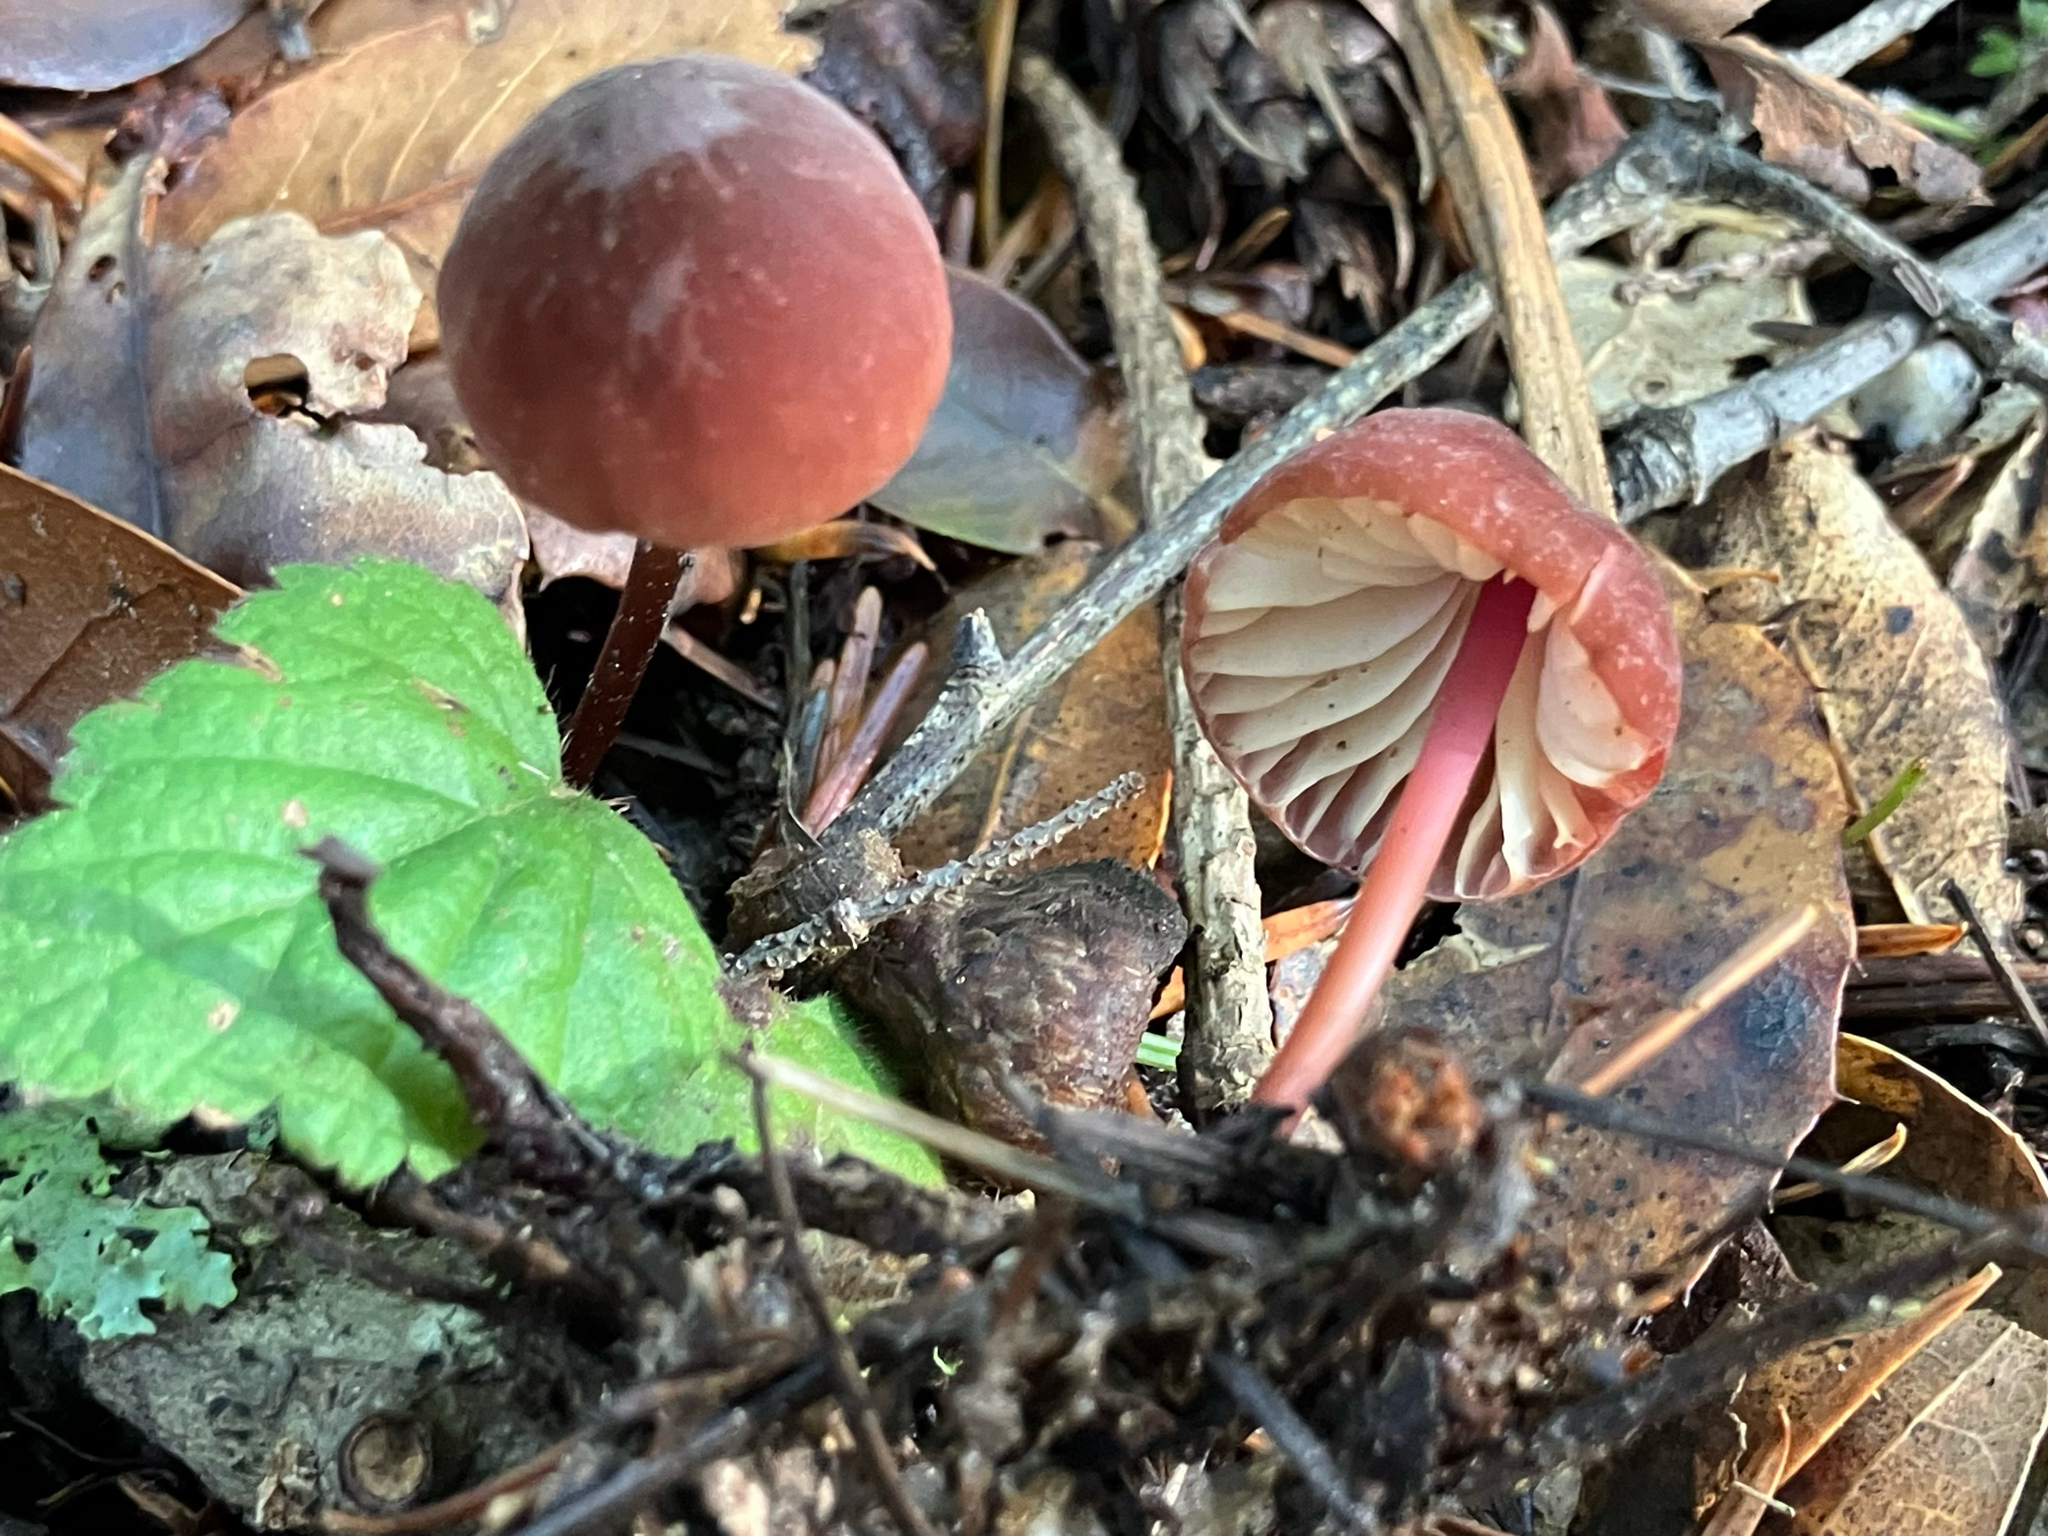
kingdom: Fungi
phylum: Basidiomycota
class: Agaricomycetes
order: Agaricales
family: Marasmiaceae
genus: Marasmius
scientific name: Marasmius plicatulus
